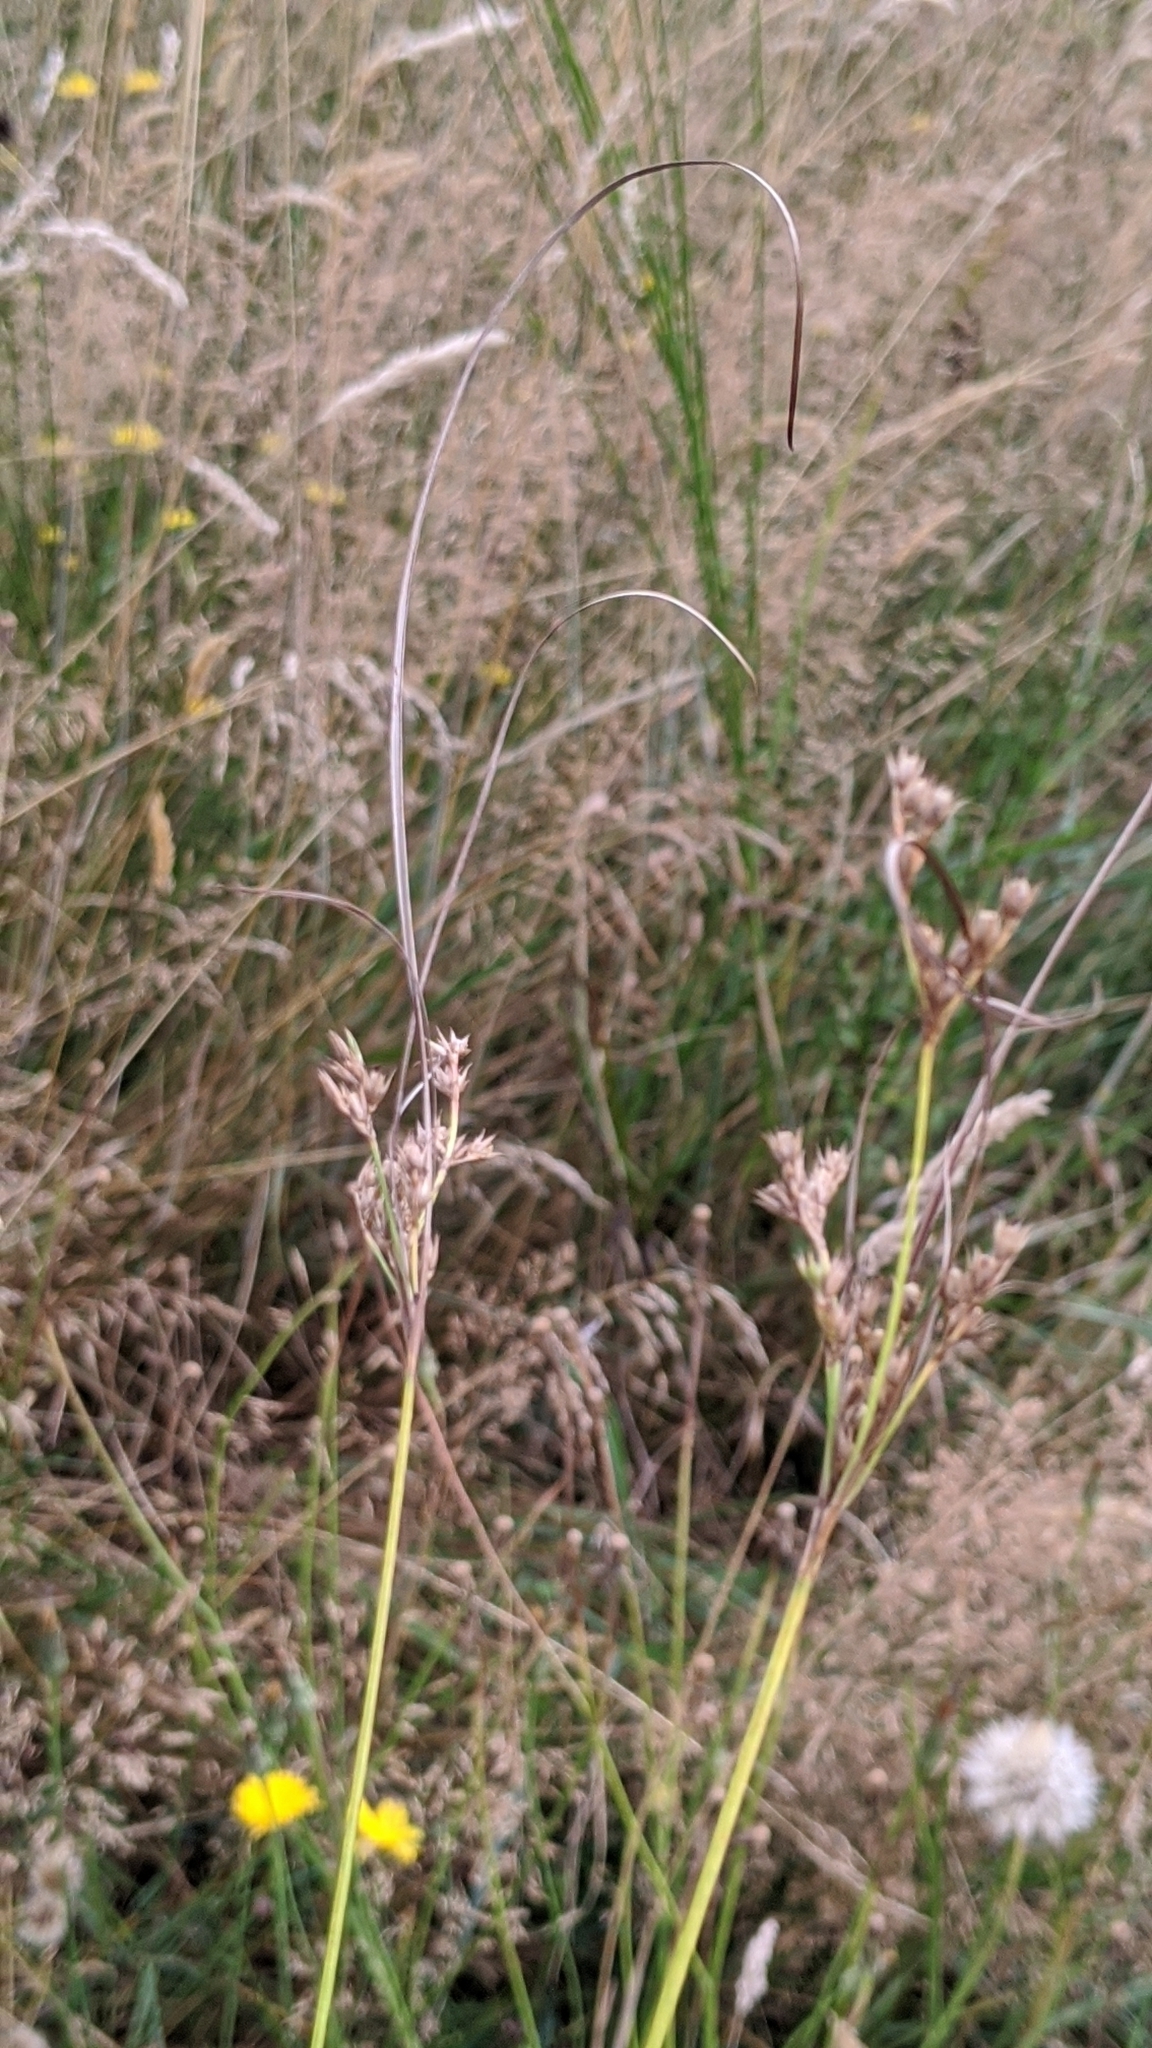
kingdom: Plantae
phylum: Tracheophyta
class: Liliopsida
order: Poales
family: Juncaceae
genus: Juncus
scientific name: Juncus tenuis
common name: Slender rush
